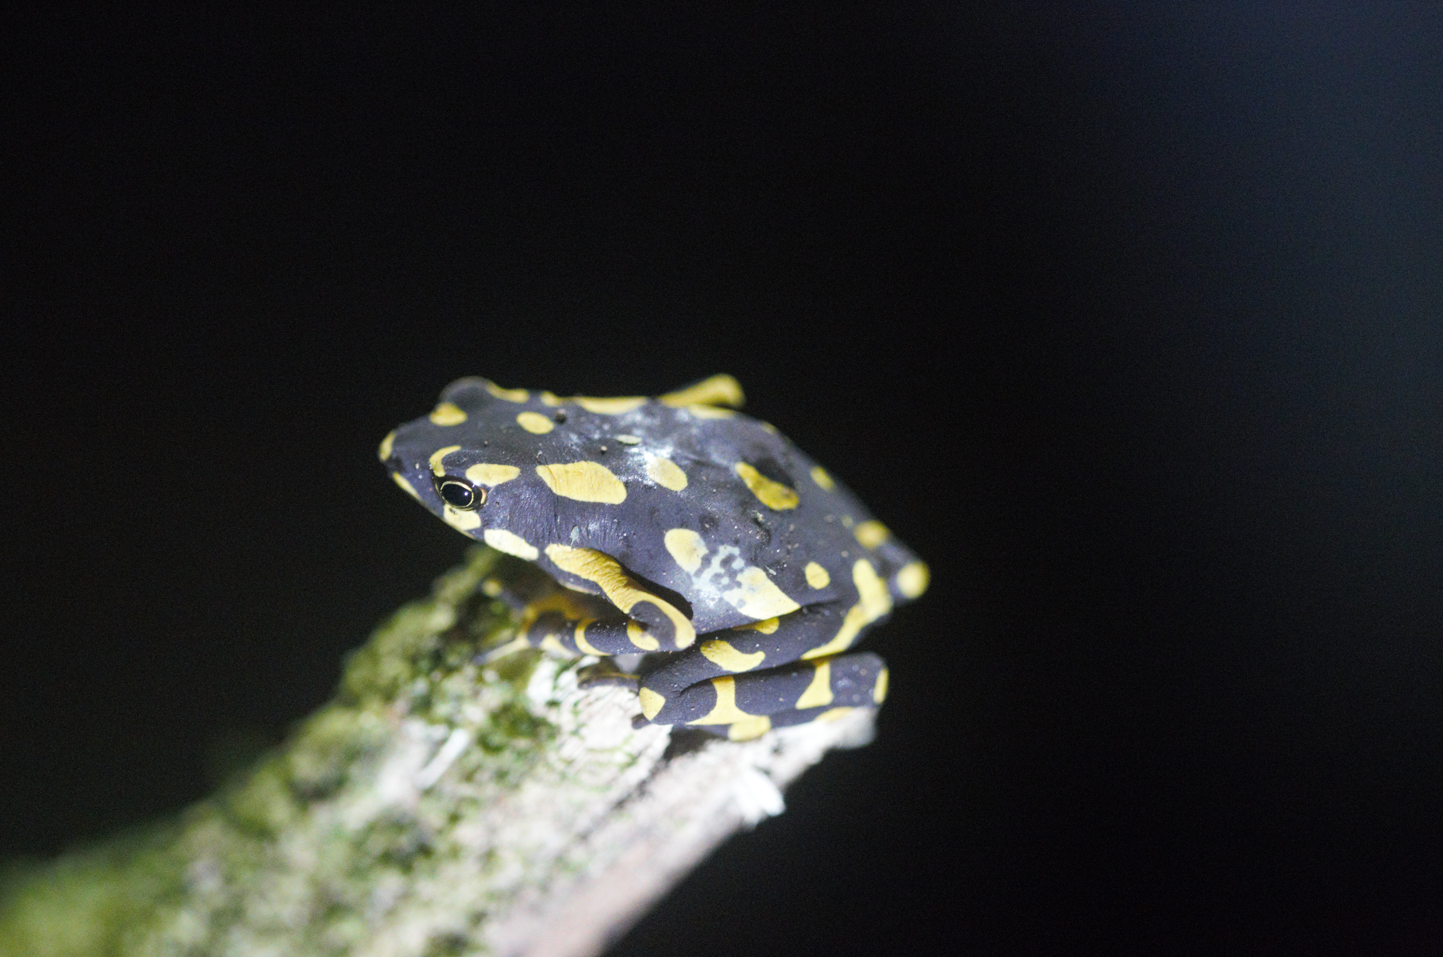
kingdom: Animalia
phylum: Chordata
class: Amphibia
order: Anura
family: Bufonidae
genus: Atelopus
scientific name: Atelopus hoogmoedi
